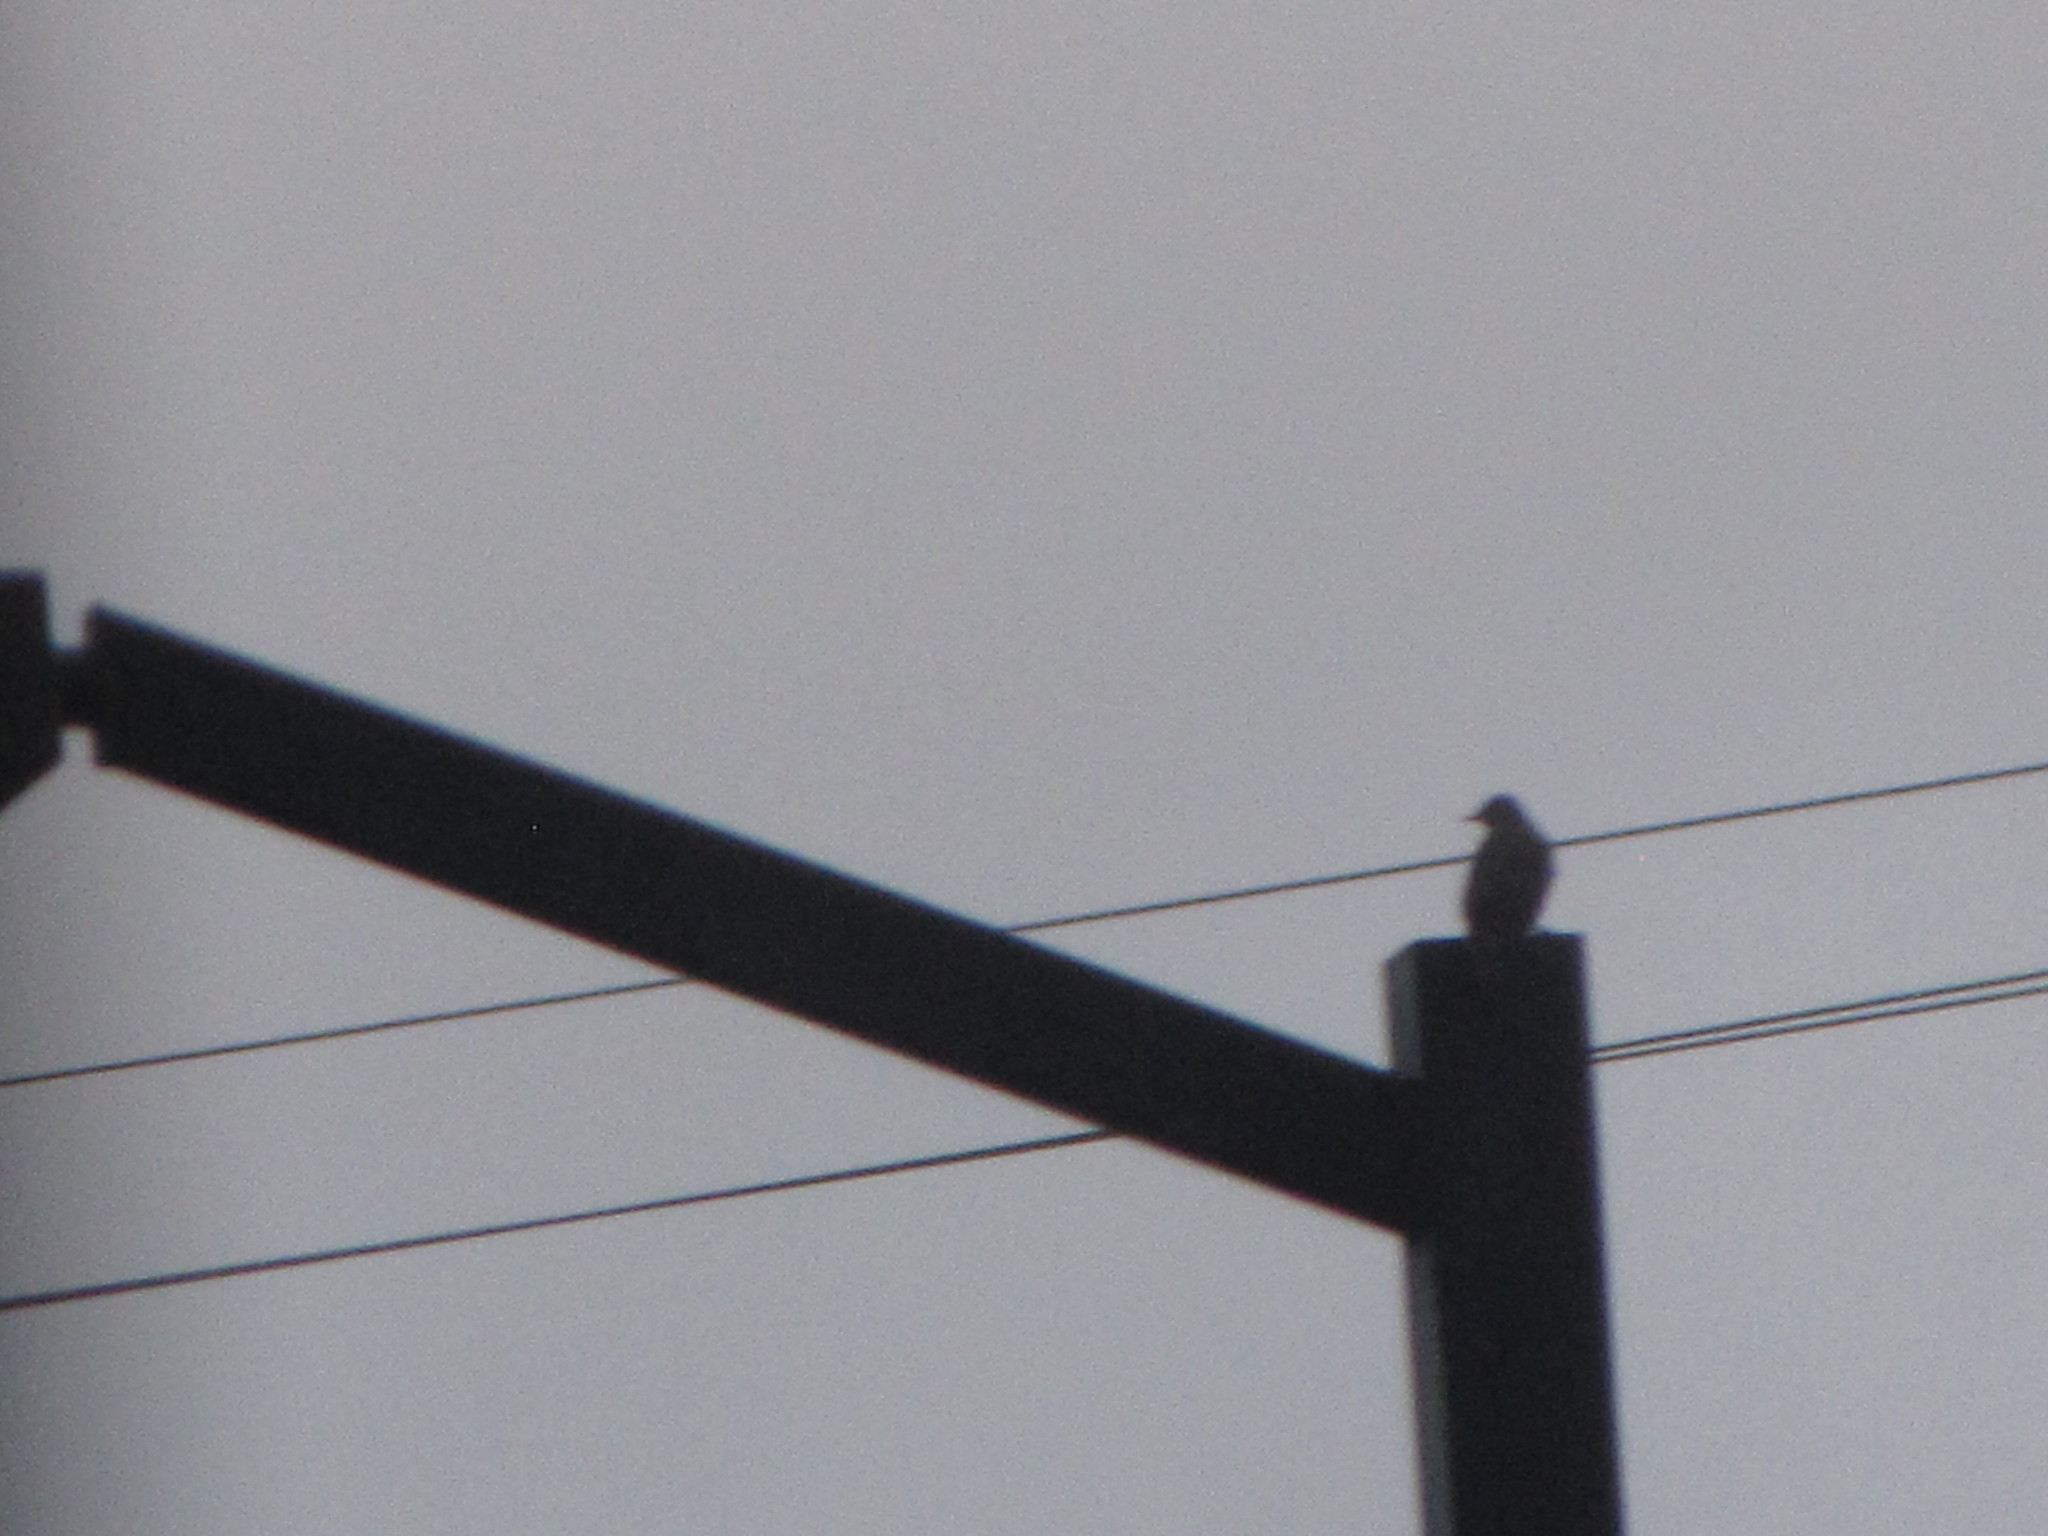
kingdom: Animalia
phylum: Chordata
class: Aves
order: Passeriformes
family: Sturnidae
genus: Sturnus
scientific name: Sturnus vulgaris
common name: Common starling
